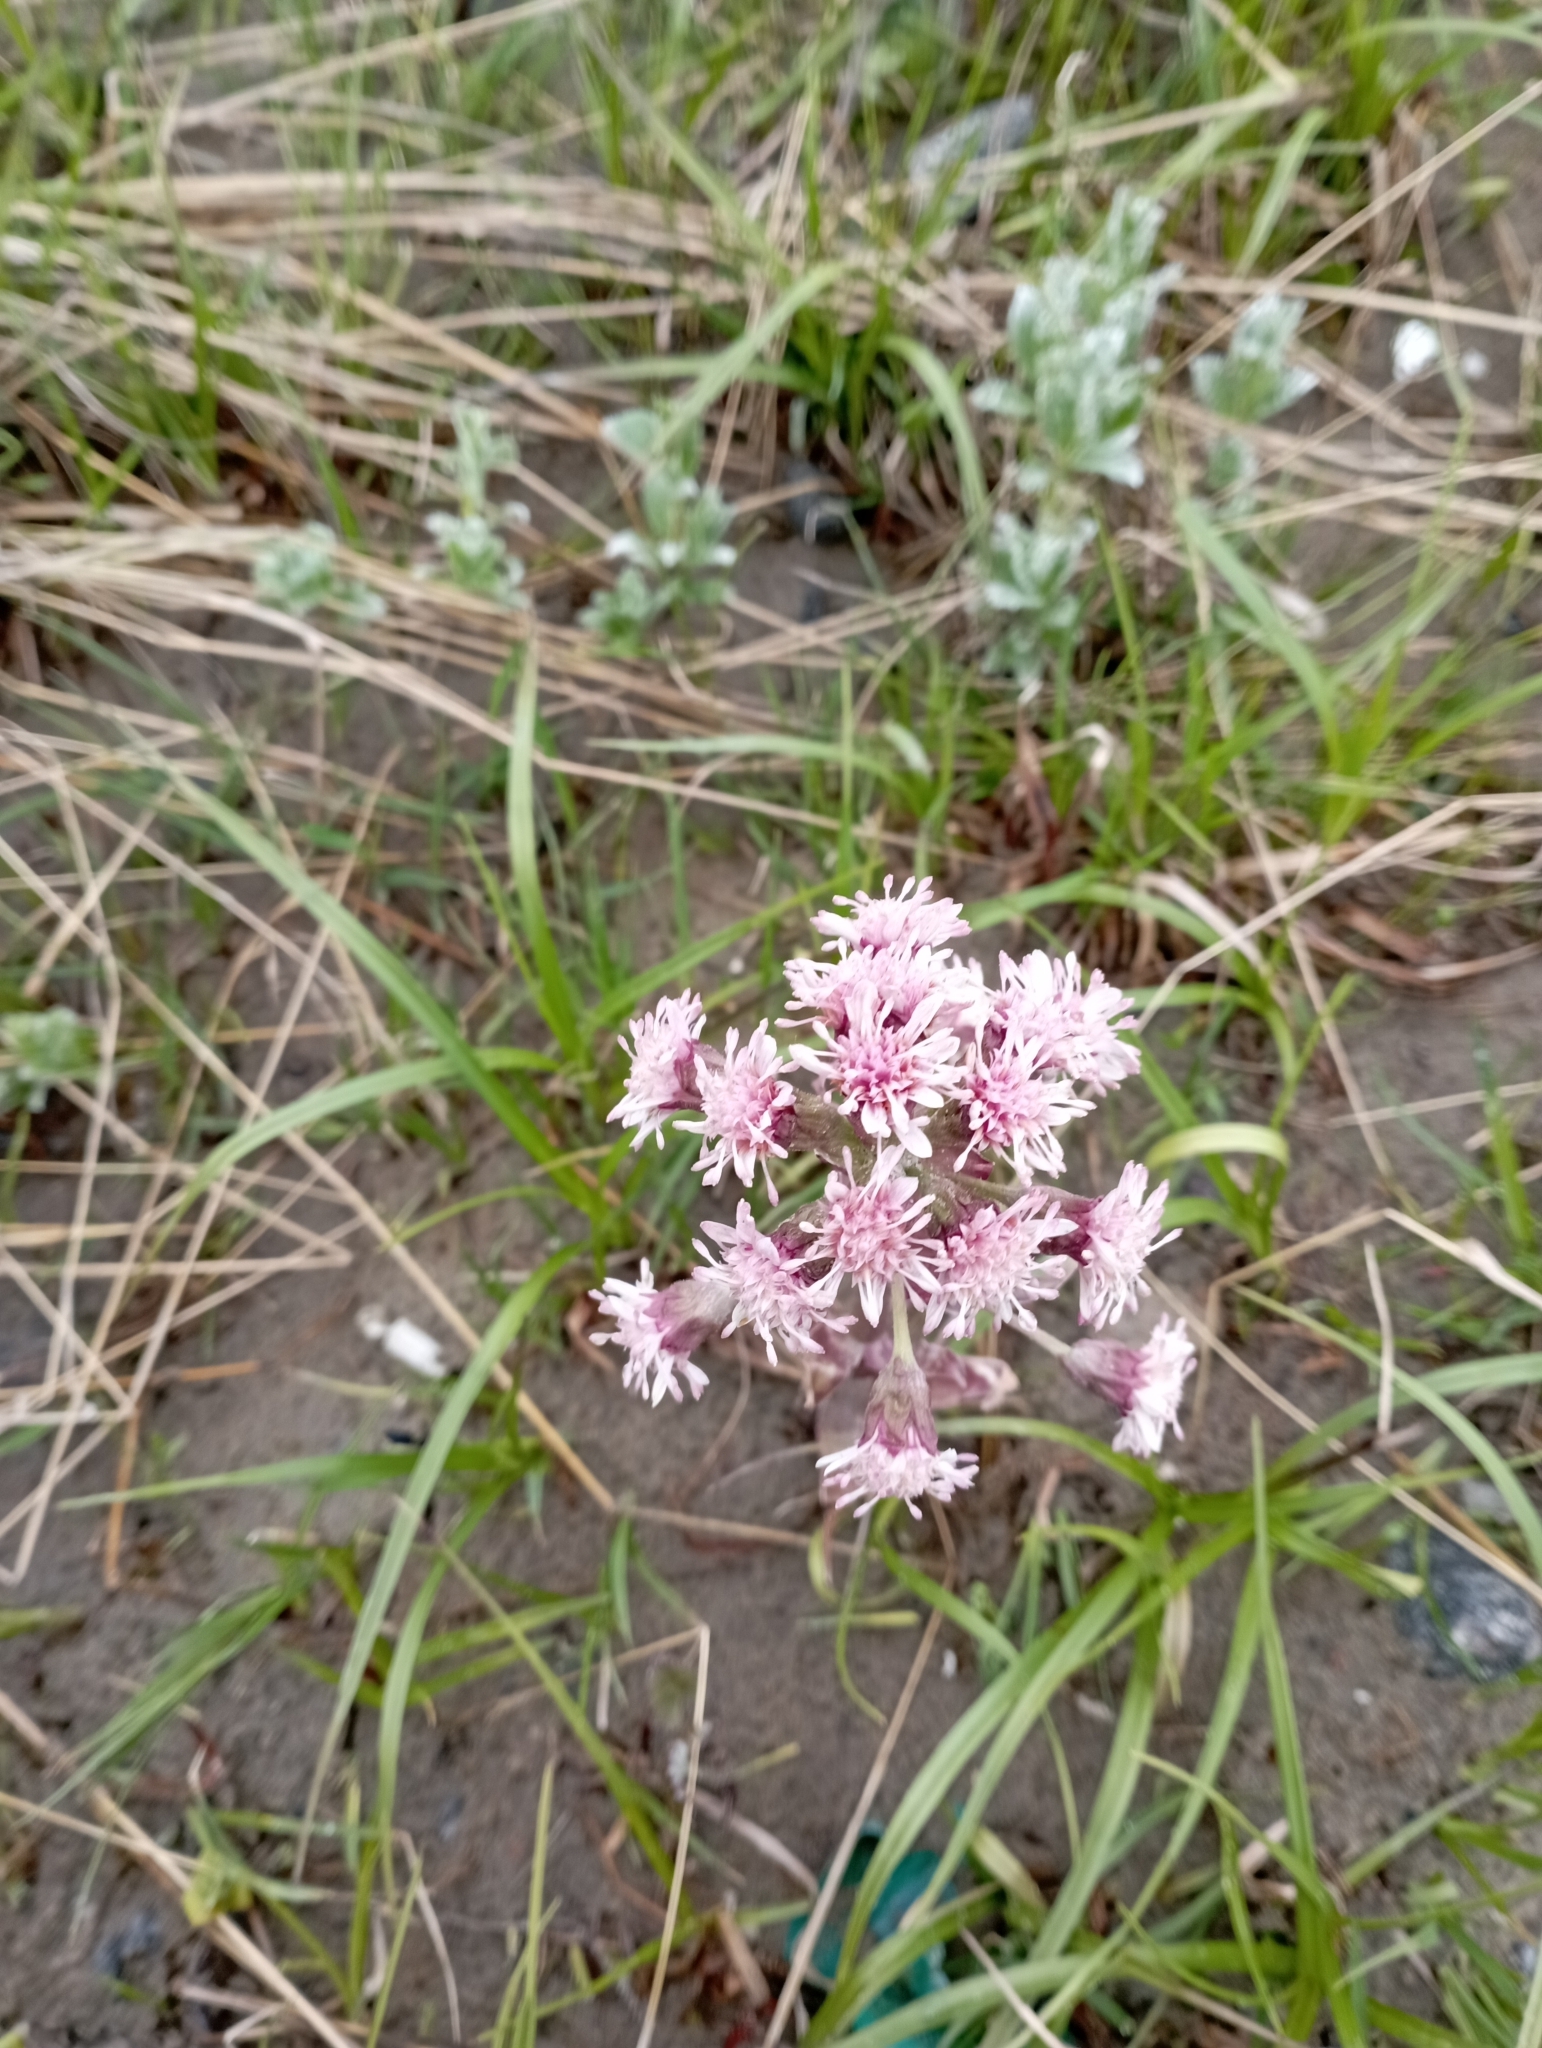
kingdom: Plantae
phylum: Tracheophyta
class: Magnoliopsida
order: Asterales
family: Asteraceae
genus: Petasites
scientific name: Petasites frigidus
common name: Arctic butterbur
